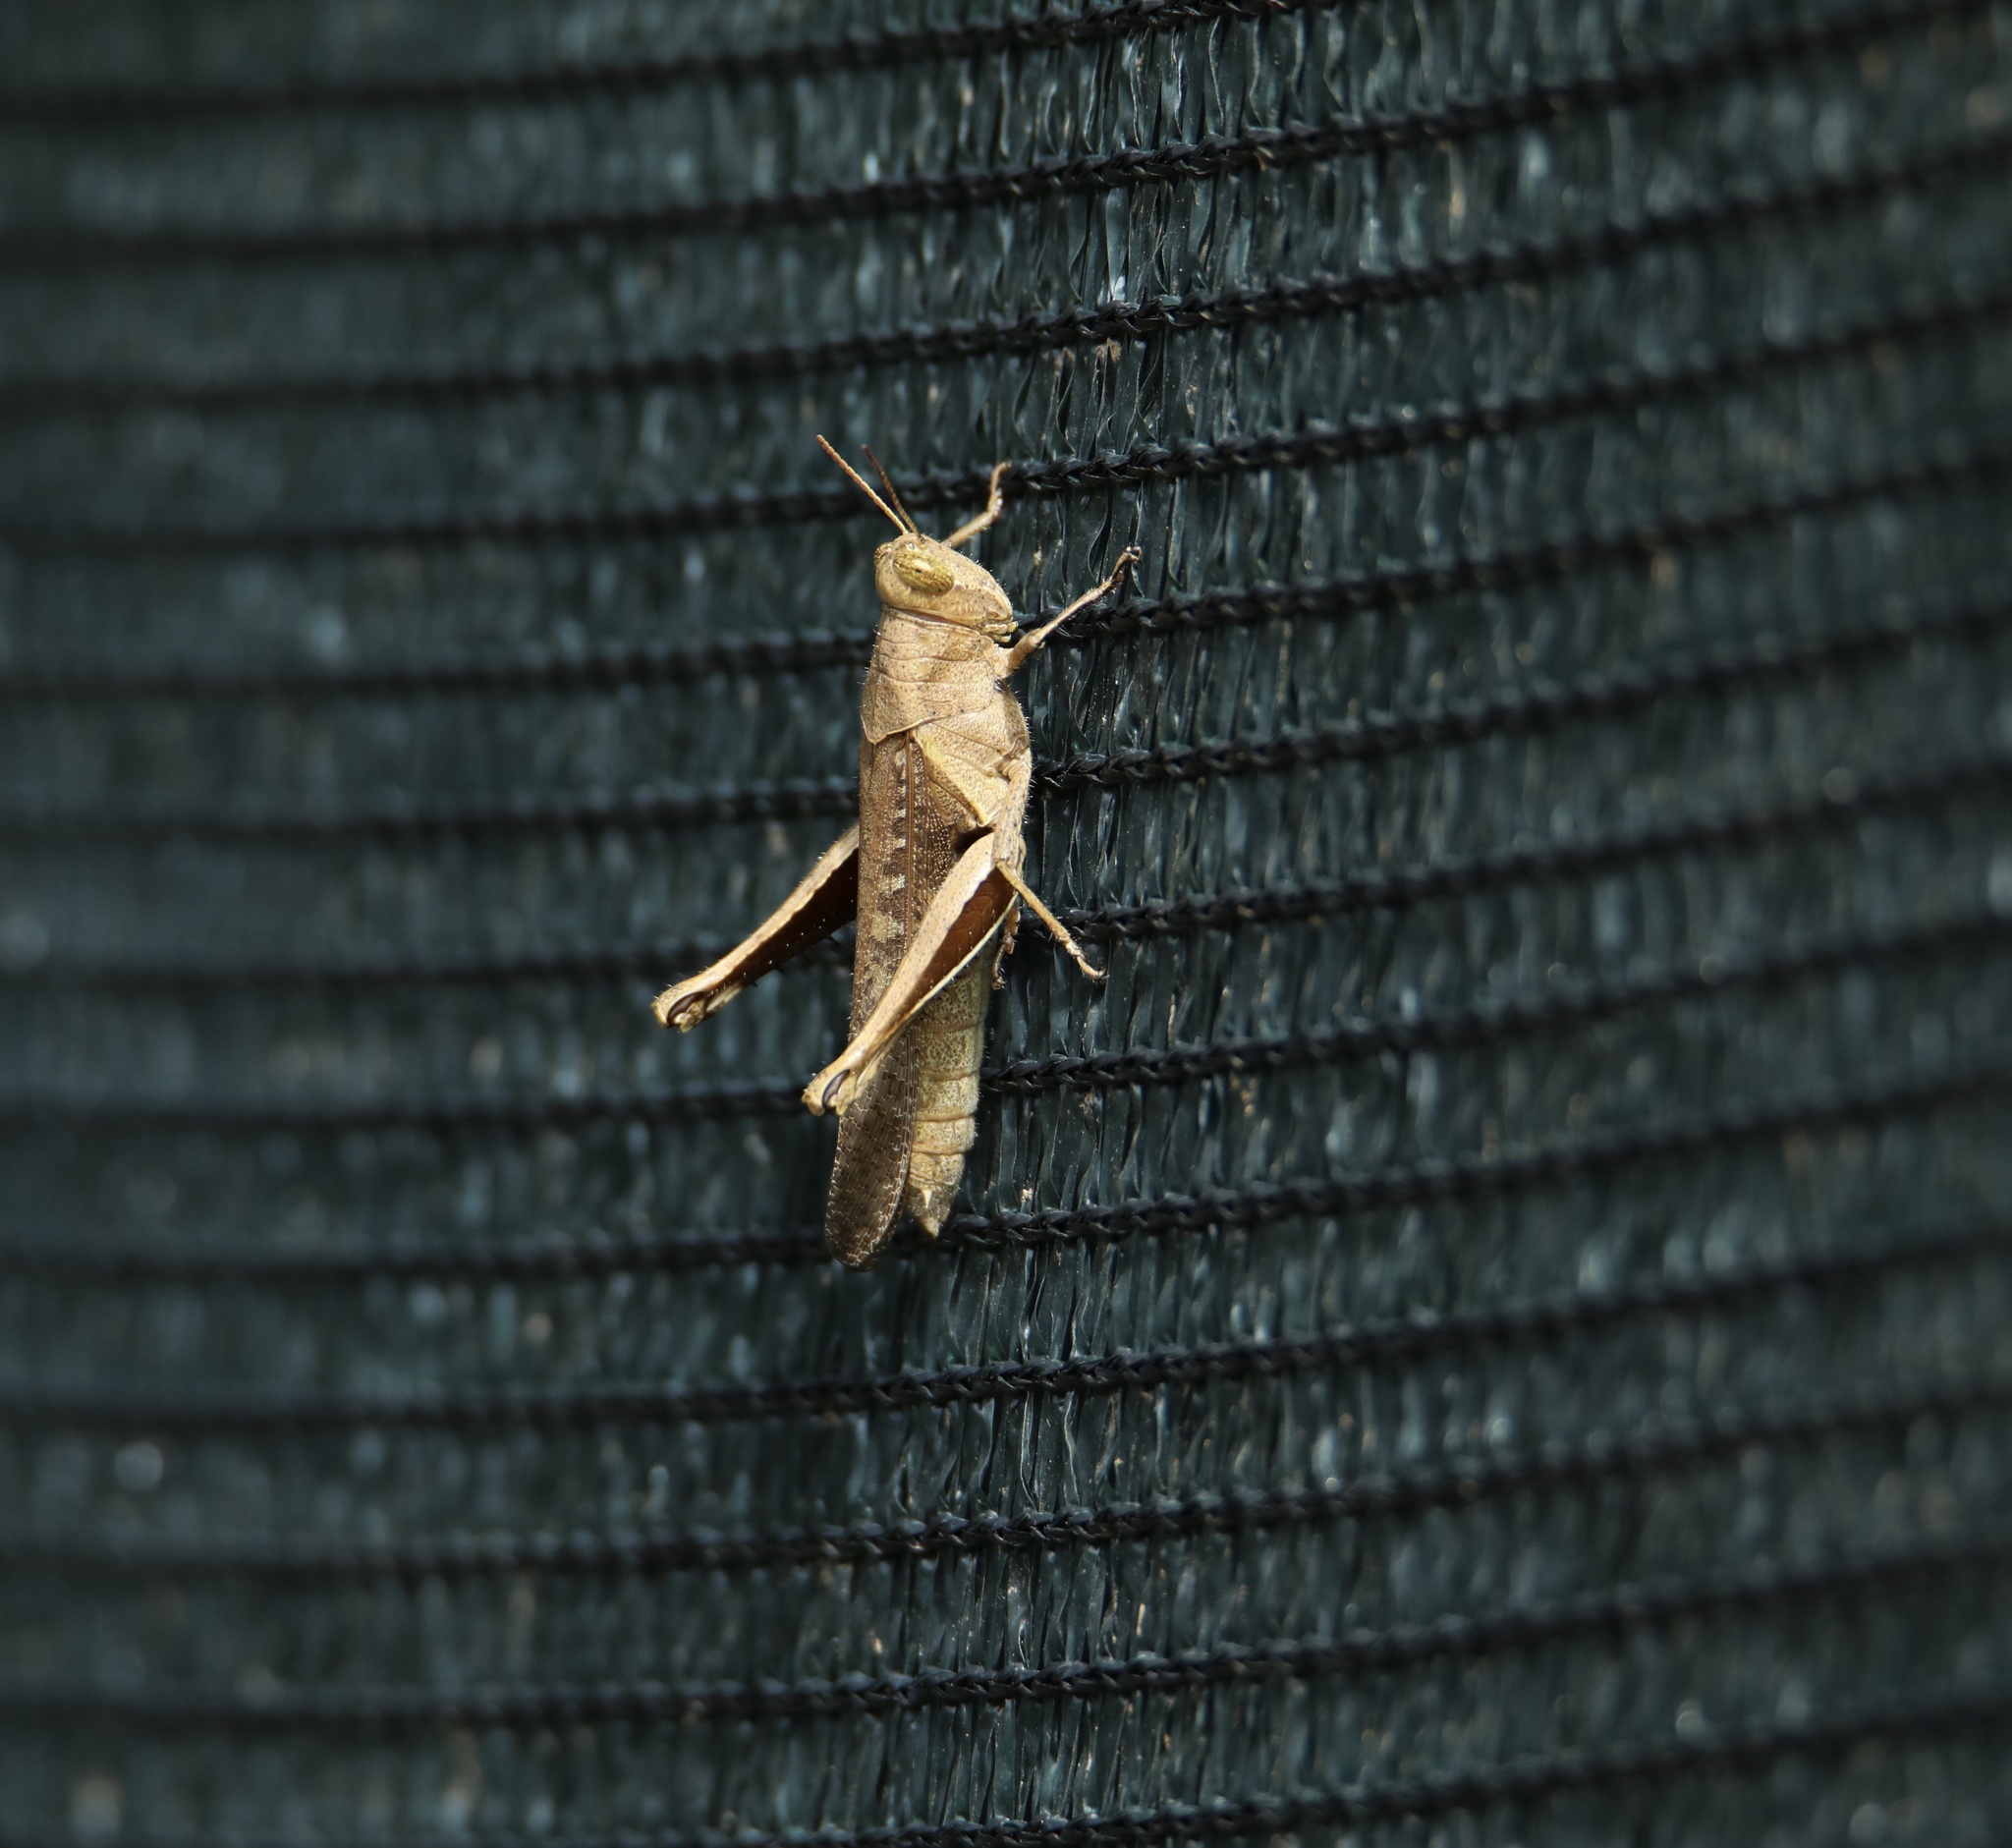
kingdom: Animalia
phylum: Arthropoda
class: Insecta
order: Orthoptera
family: Acrididae
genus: Abracris
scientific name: Abracris flavolineata
